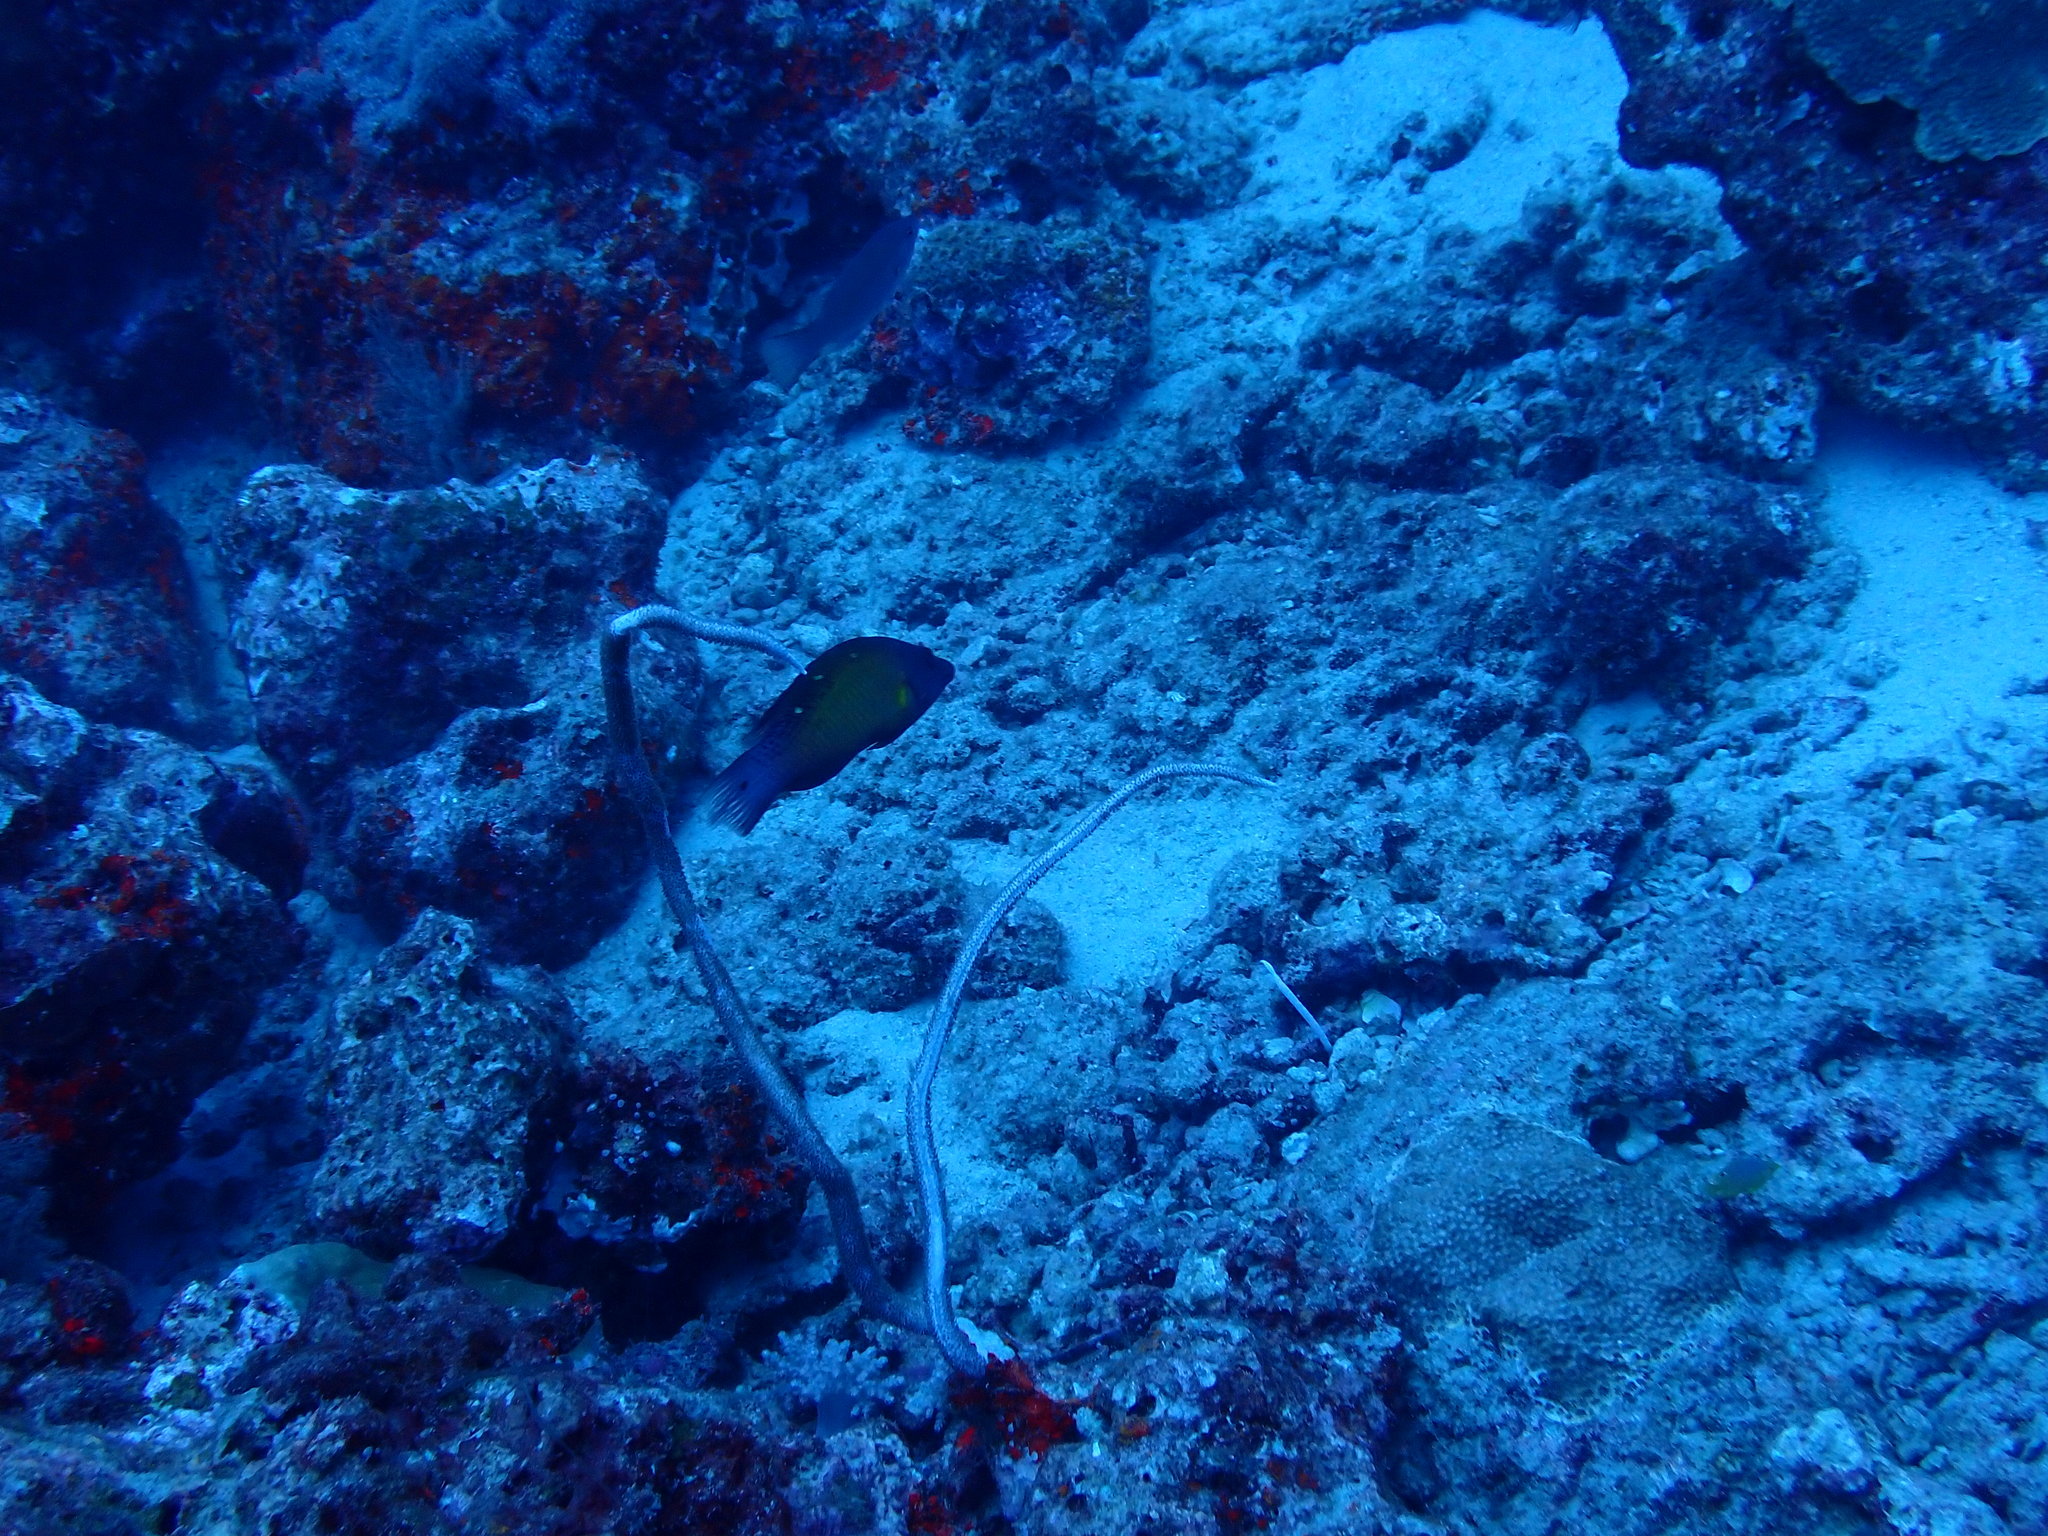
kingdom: Animalia
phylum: Chordata
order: Perciformes
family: Labridae
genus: Bodianus
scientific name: Bodianus diana
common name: Diana's hogfish
